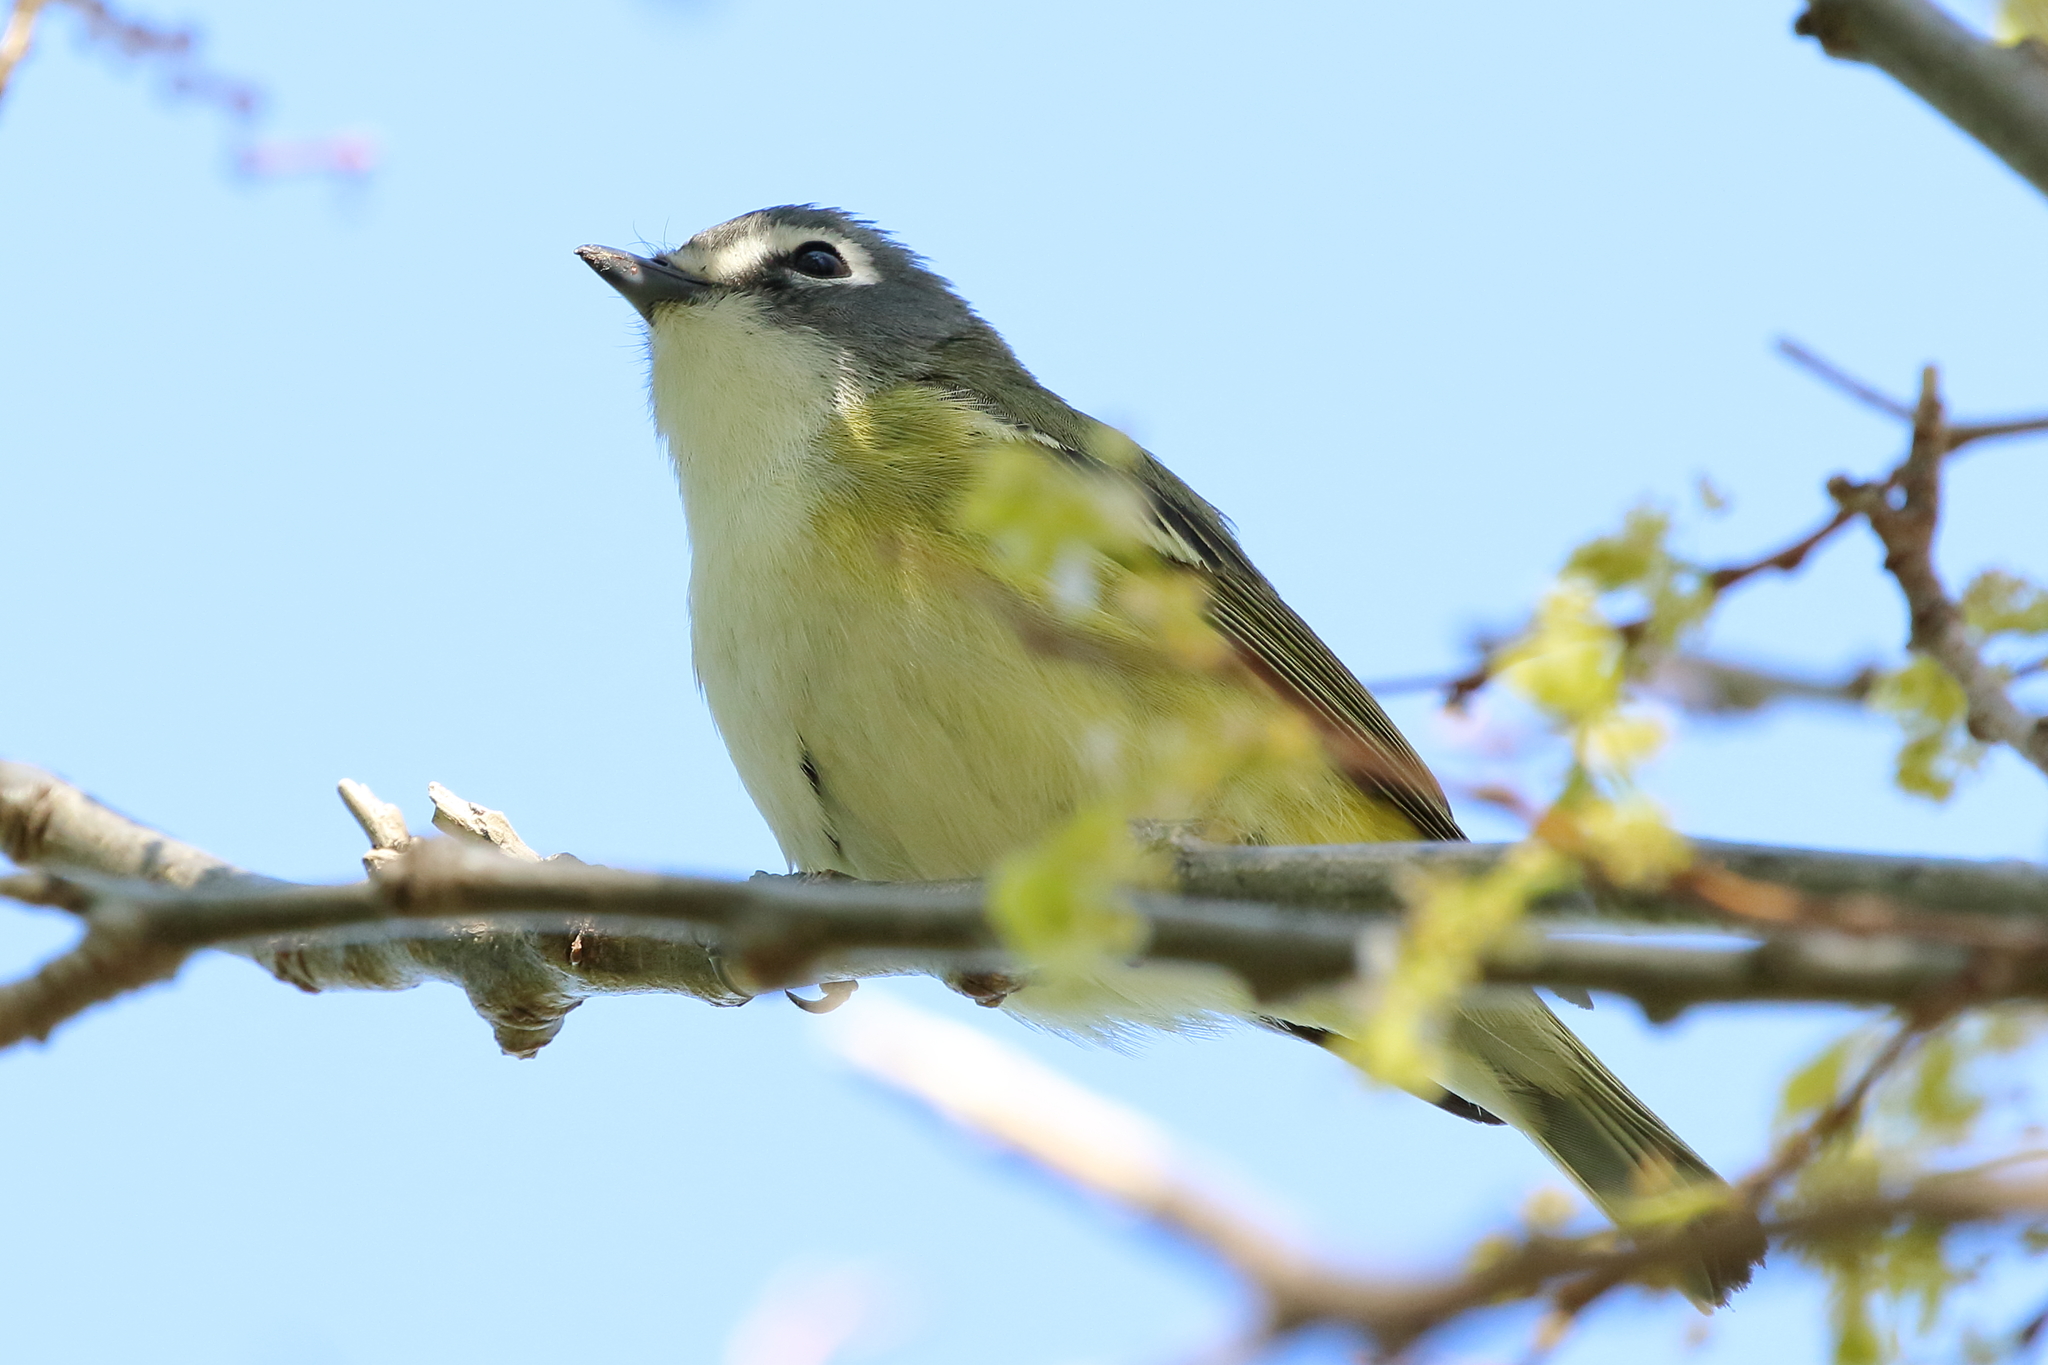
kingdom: Animalia
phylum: Chordata
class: Aves
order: Passeriformes
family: Vireonidae
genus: Vireo
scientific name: Vireo solitarius
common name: Blue-headed vireo
